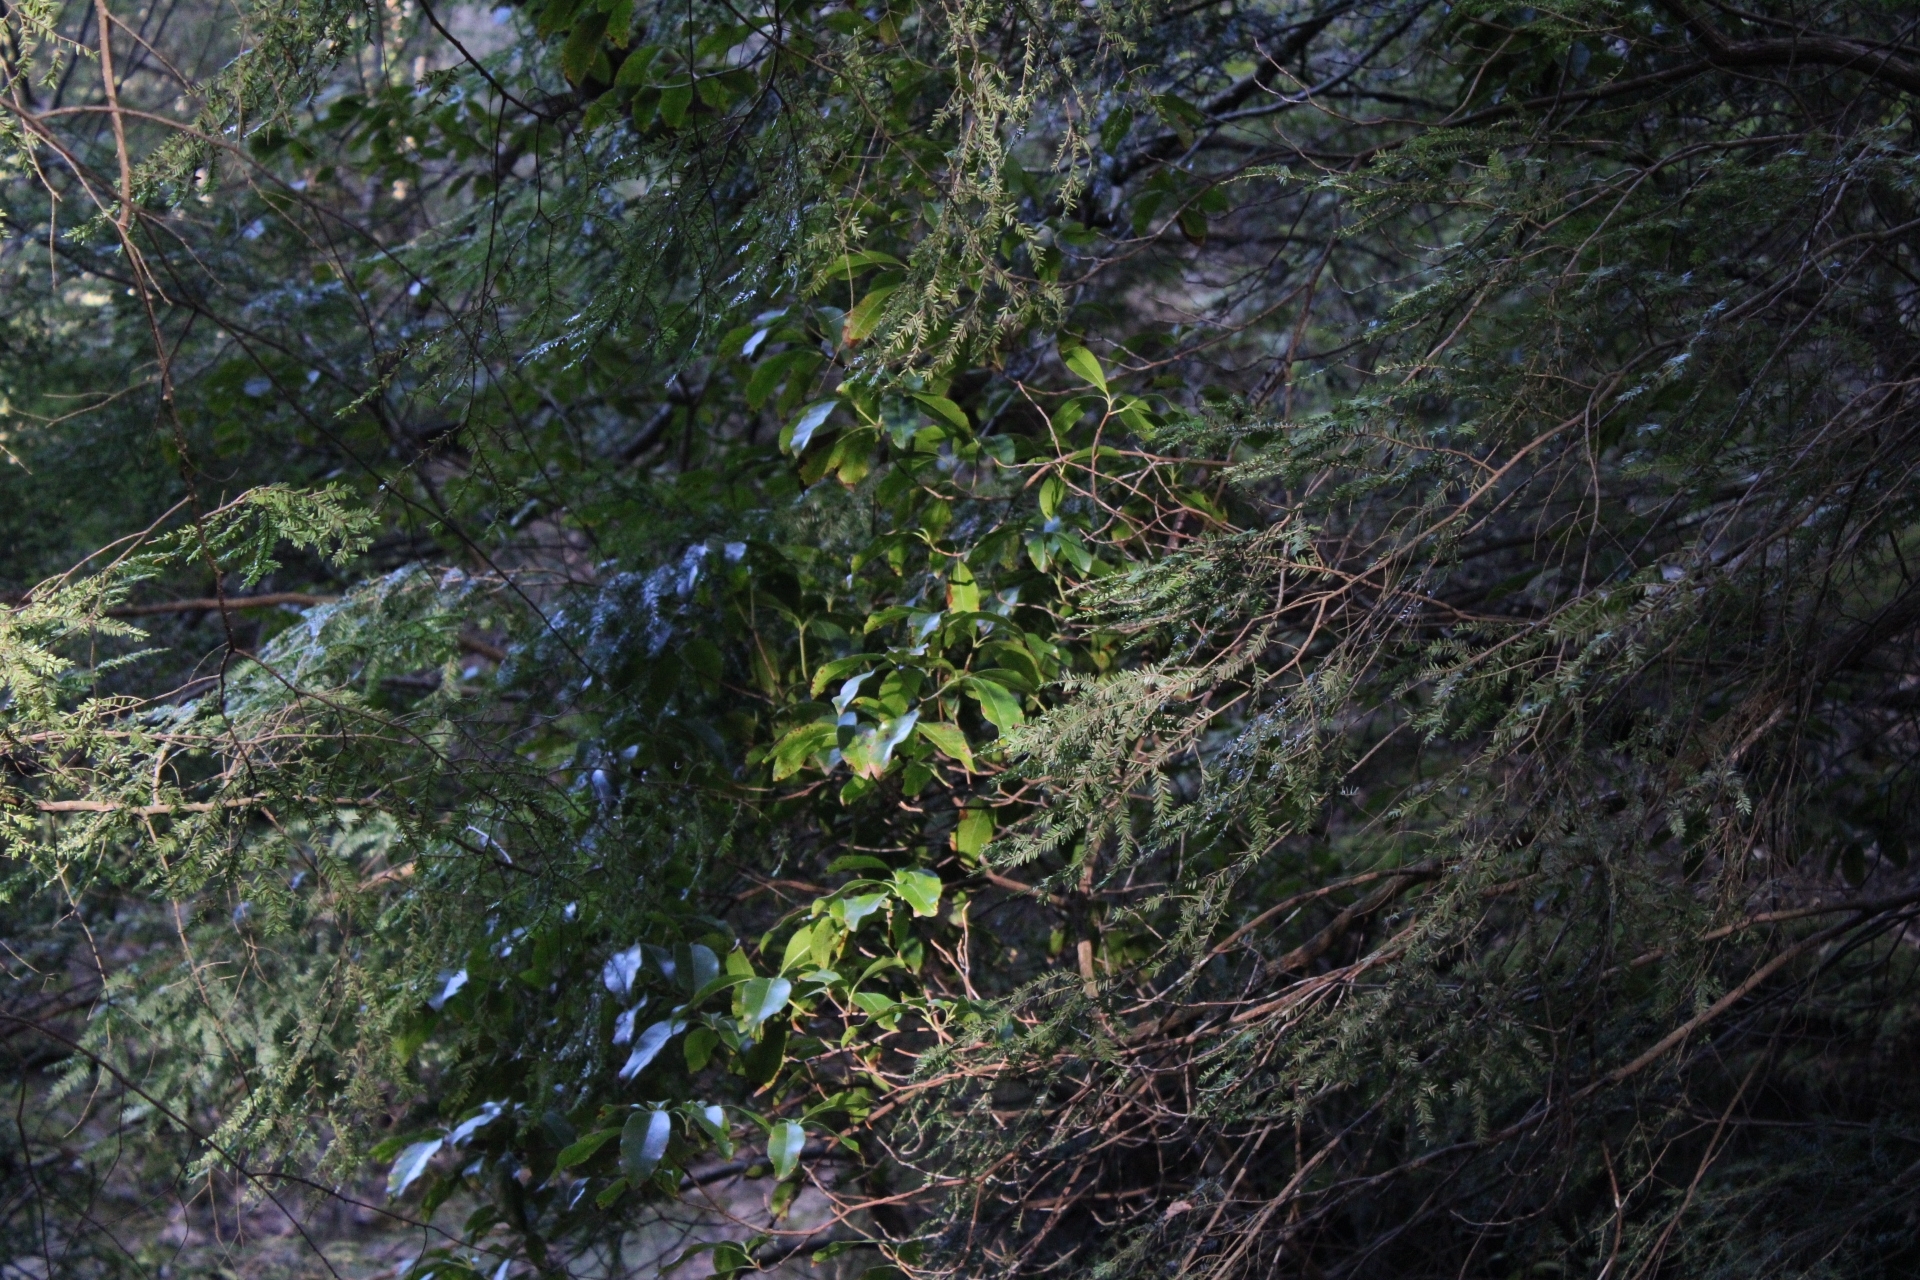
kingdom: Plantae
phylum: Tracheophyta
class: Pinopsida
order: Pinales
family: Pinaceae
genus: Tsuga
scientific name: Tsuga canadensis
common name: Eastern hemlock
